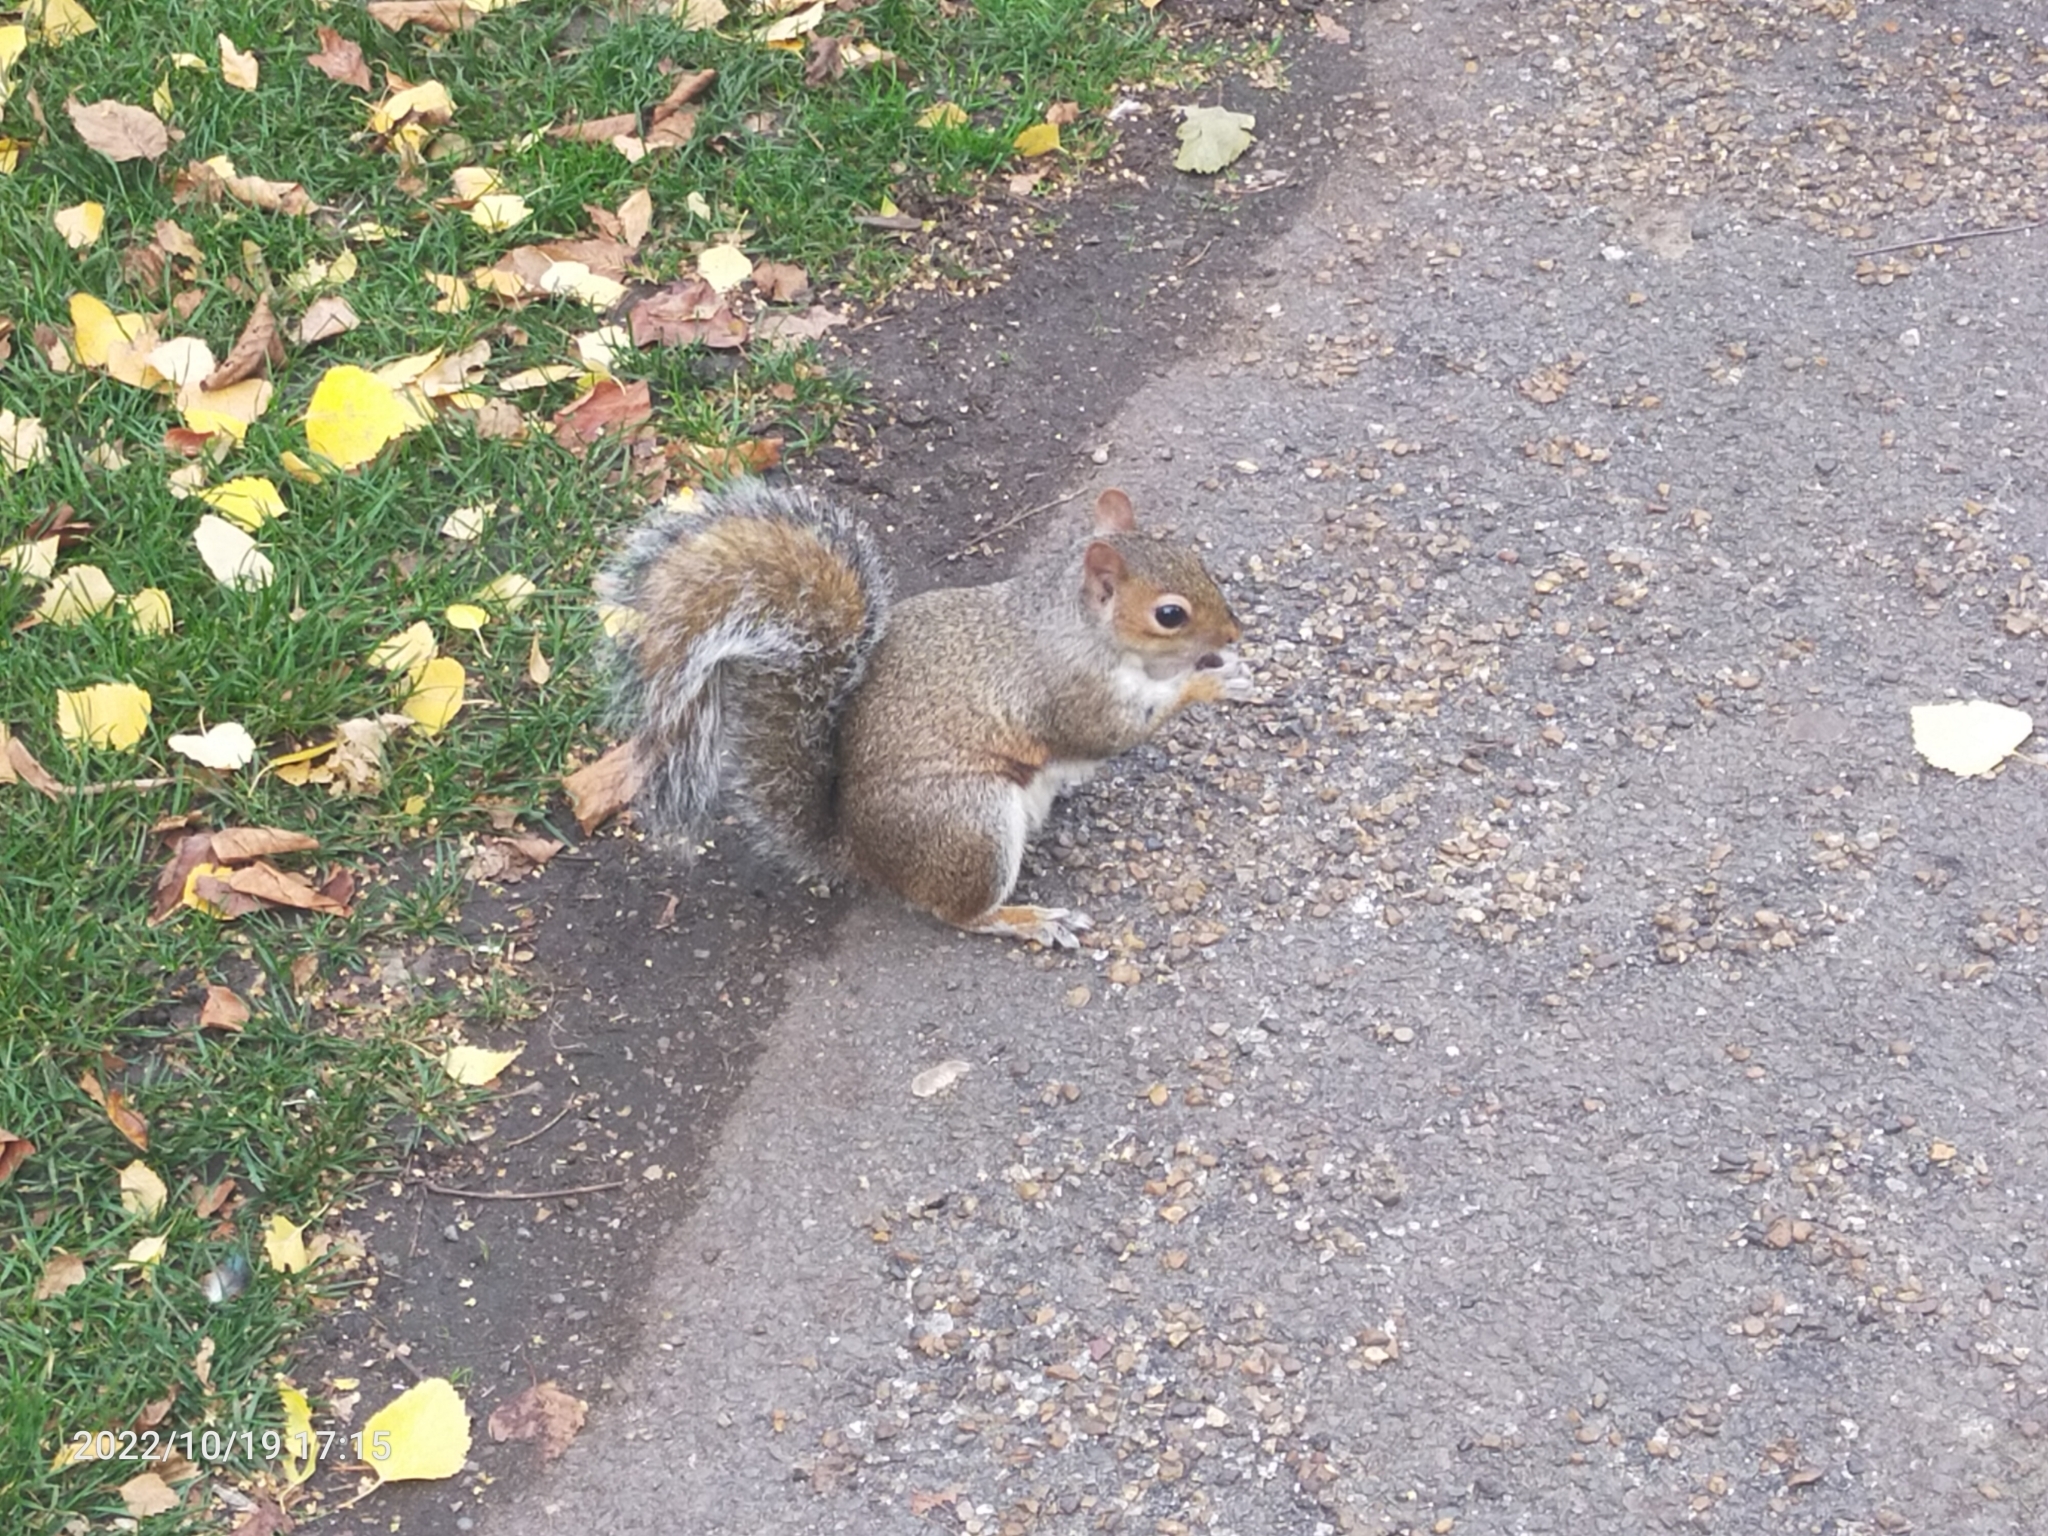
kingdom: Animalia
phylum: Chordata
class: Mammalia
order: Rodentia
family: Sciuridae
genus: Sciurus
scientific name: Sciurus carolinensis
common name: Eastern gray squirrel
